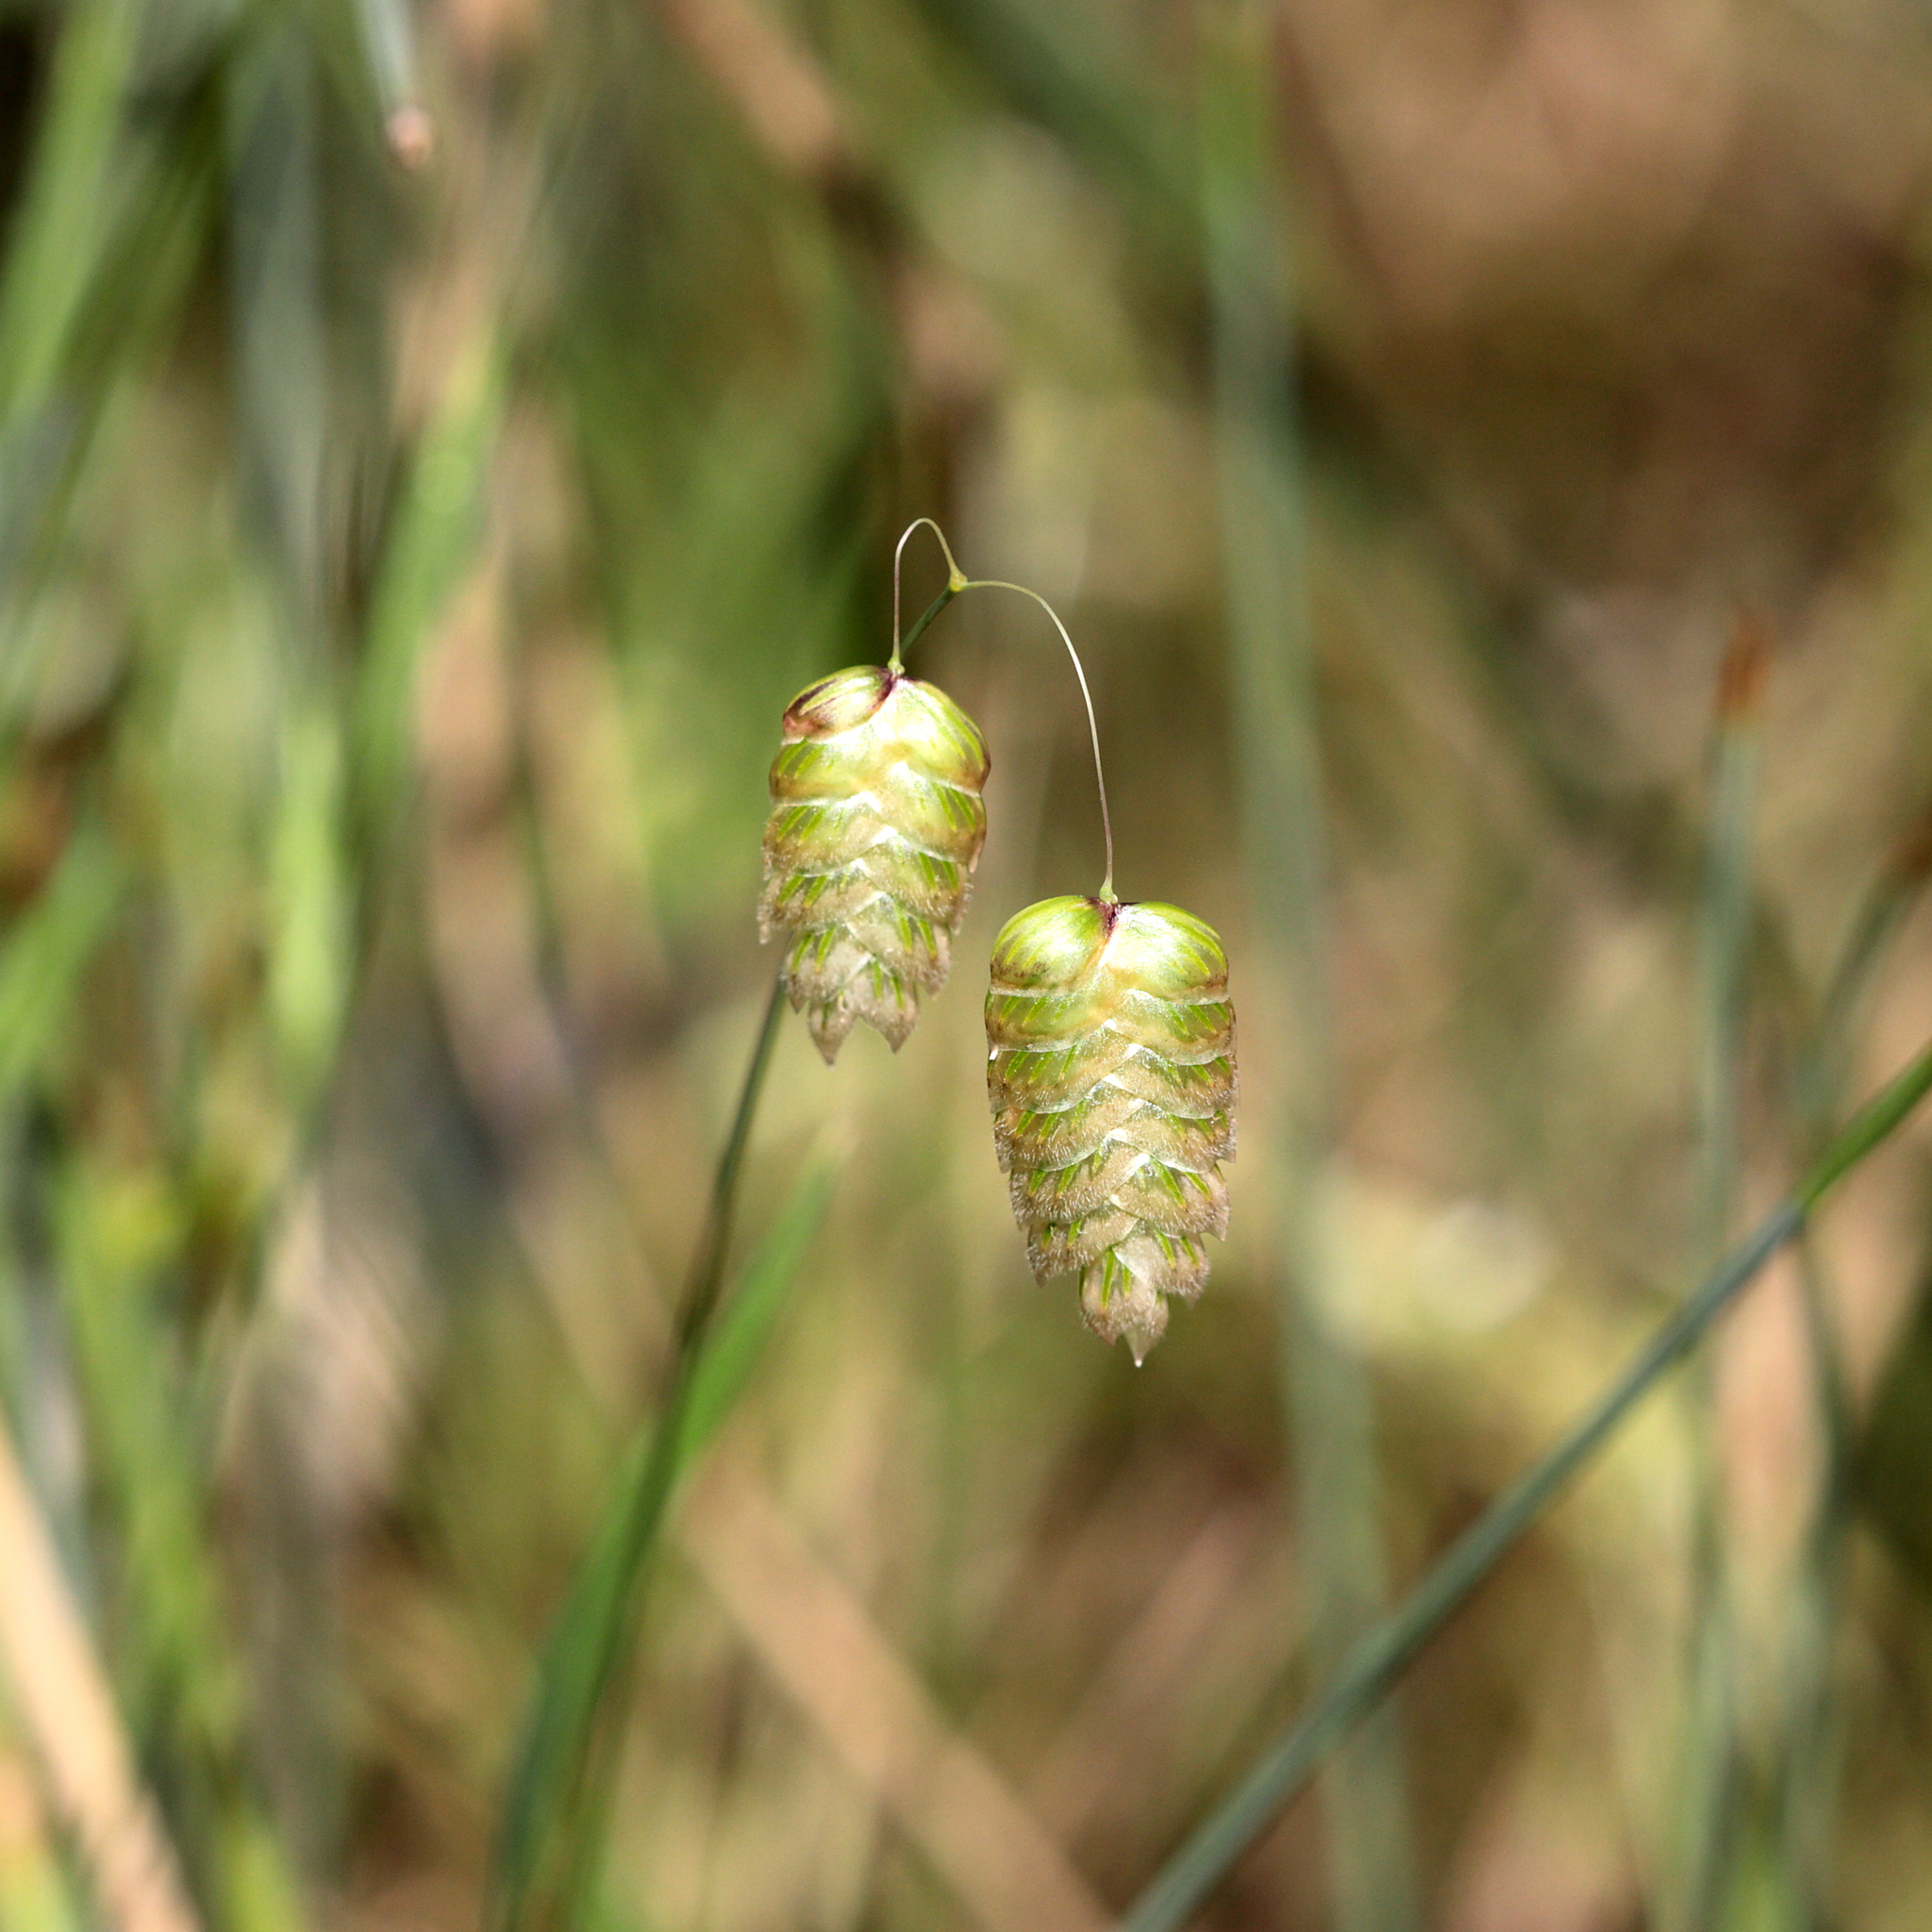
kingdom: Plantae
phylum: Tracheophyta
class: Liliopsida
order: Poales
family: Poaceae
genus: Briza
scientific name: Briza maxima
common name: Big quakinggrass
